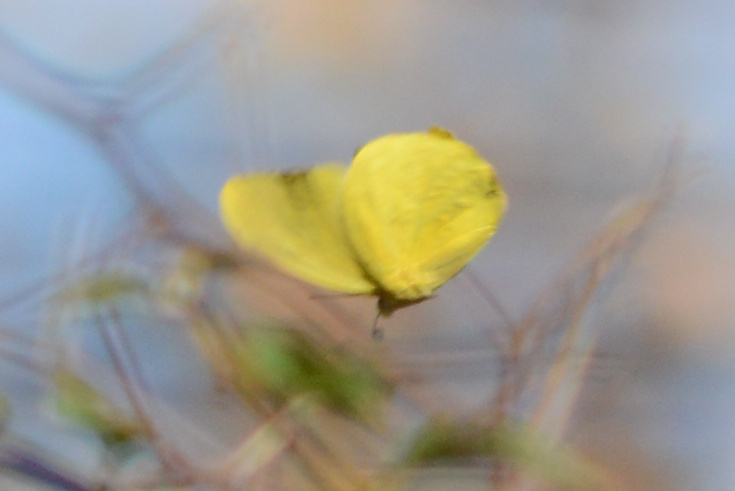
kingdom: Animalia
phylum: Arthropoda
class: Insecta
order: Lepidoptera
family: Pieridae
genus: Phoebis
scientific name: Phoebis agarithe
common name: Large orange sulphur
